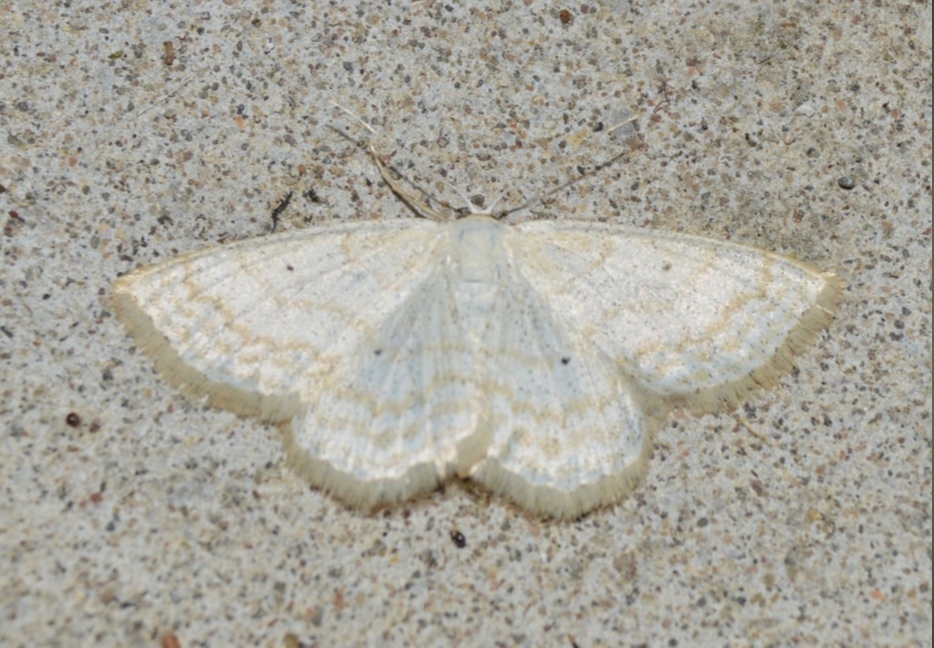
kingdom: Animalia
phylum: Arthropoda
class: Insecta
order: Lepidoptera
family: Geometridae
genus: Scopula
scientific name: Scopula immutata
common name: Lesser cream wave
